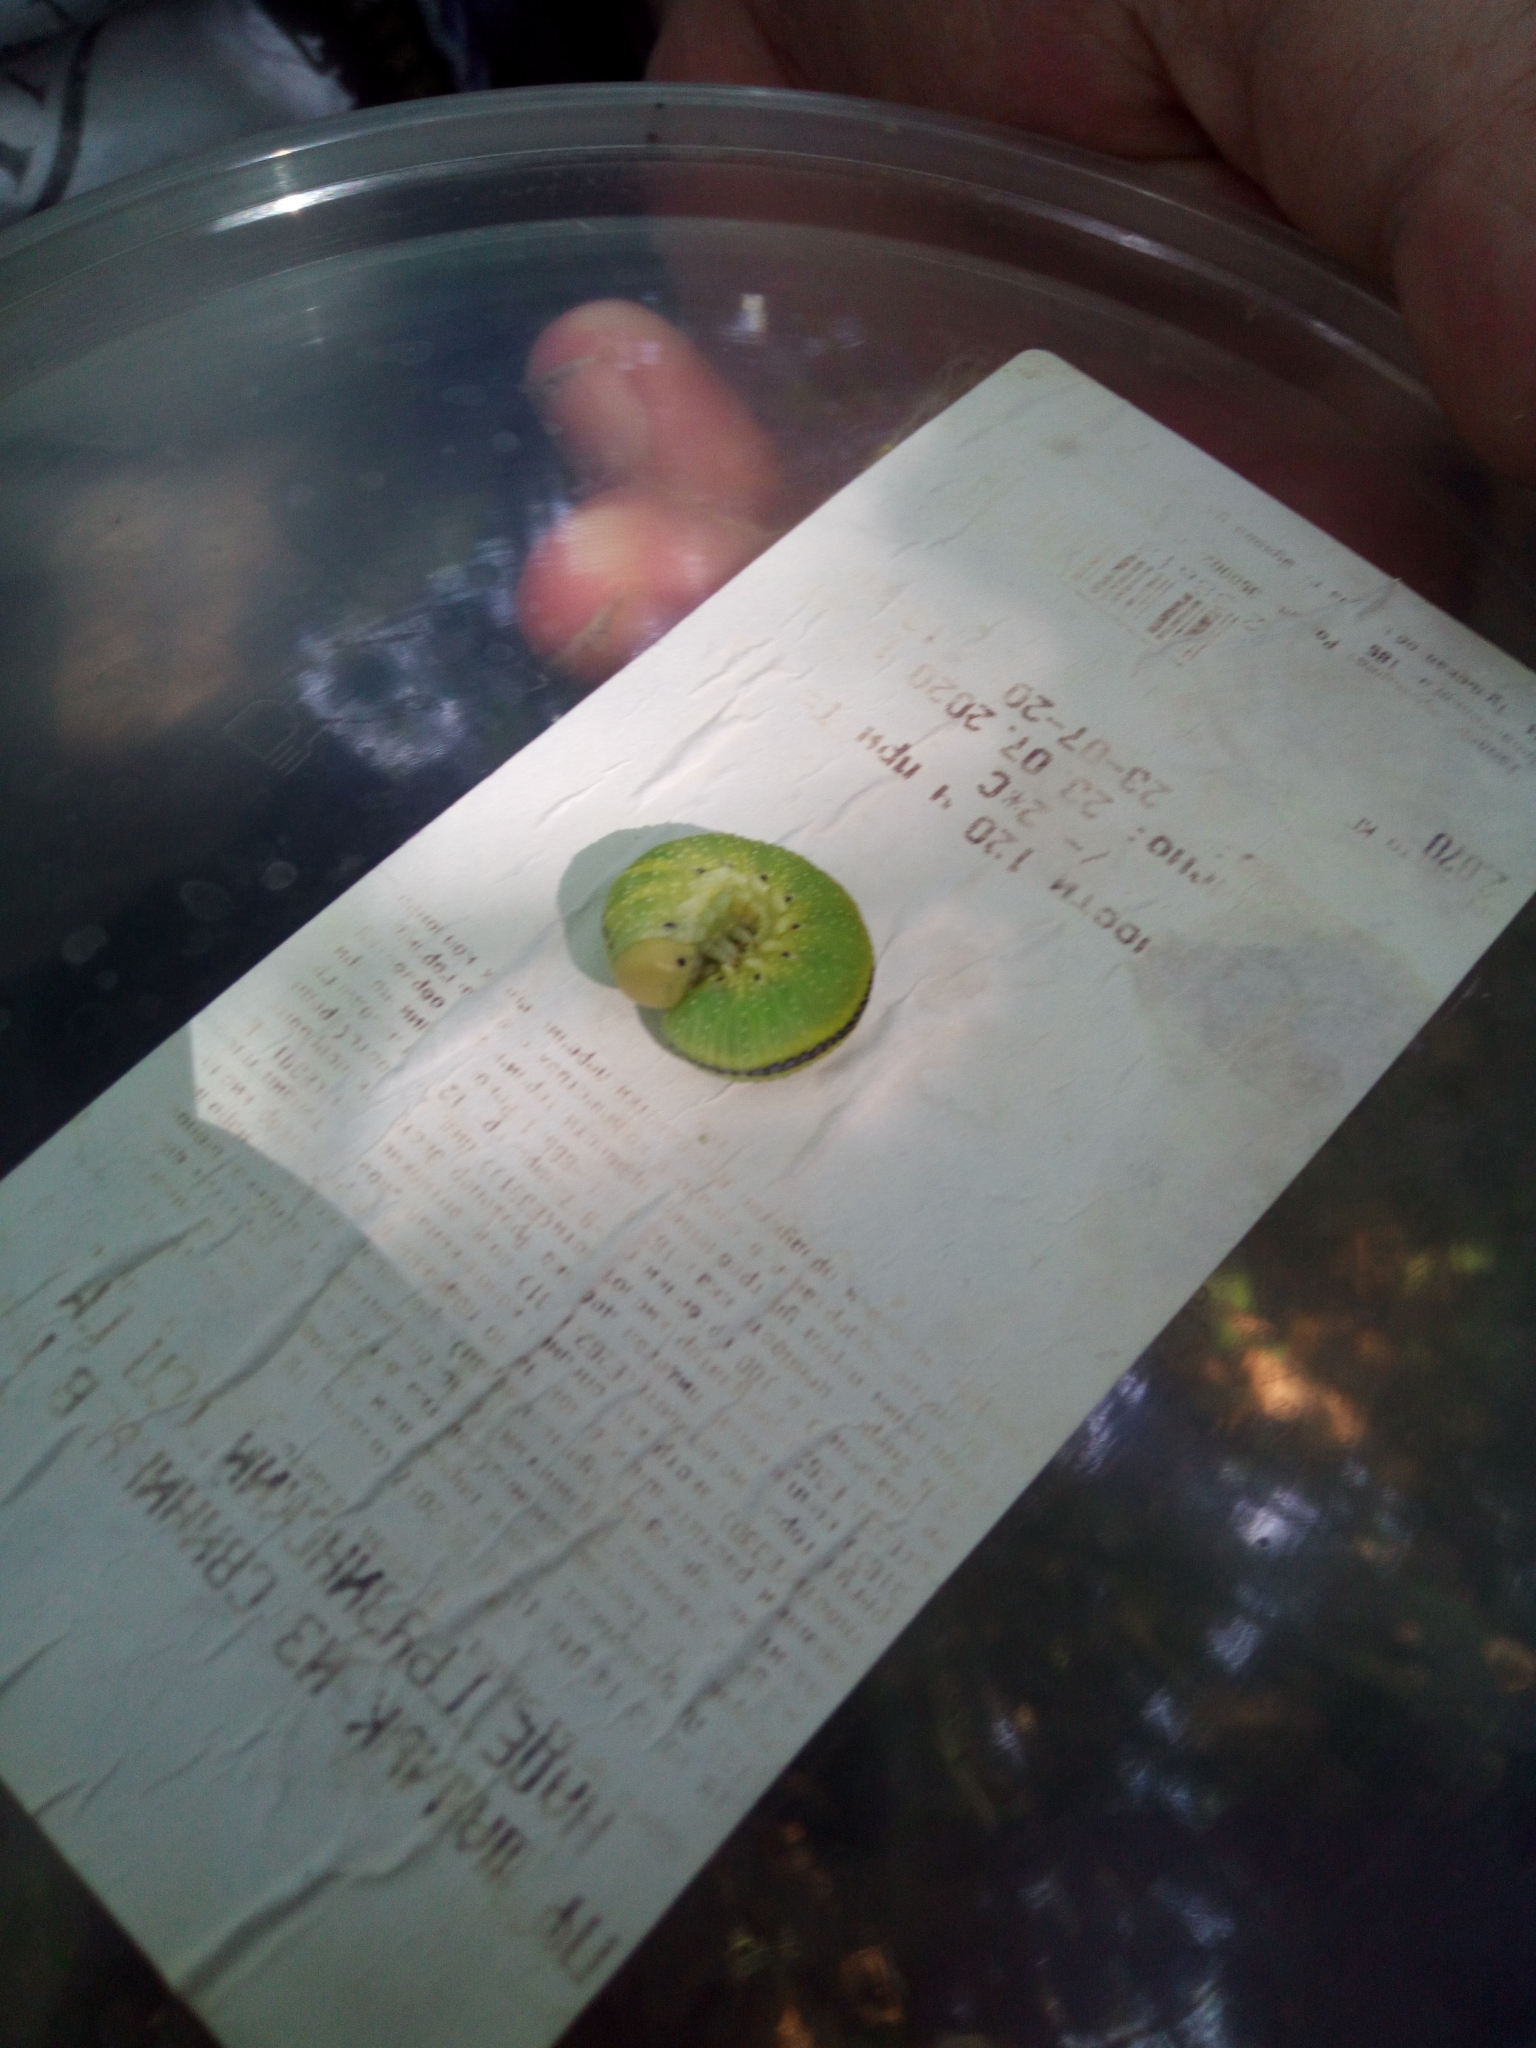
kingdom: Animalia
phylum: Arthropoda
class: Insecta
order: Hymenoptera
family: Cimbicidae
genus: Cimbex
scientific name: Cimbex femoratus
